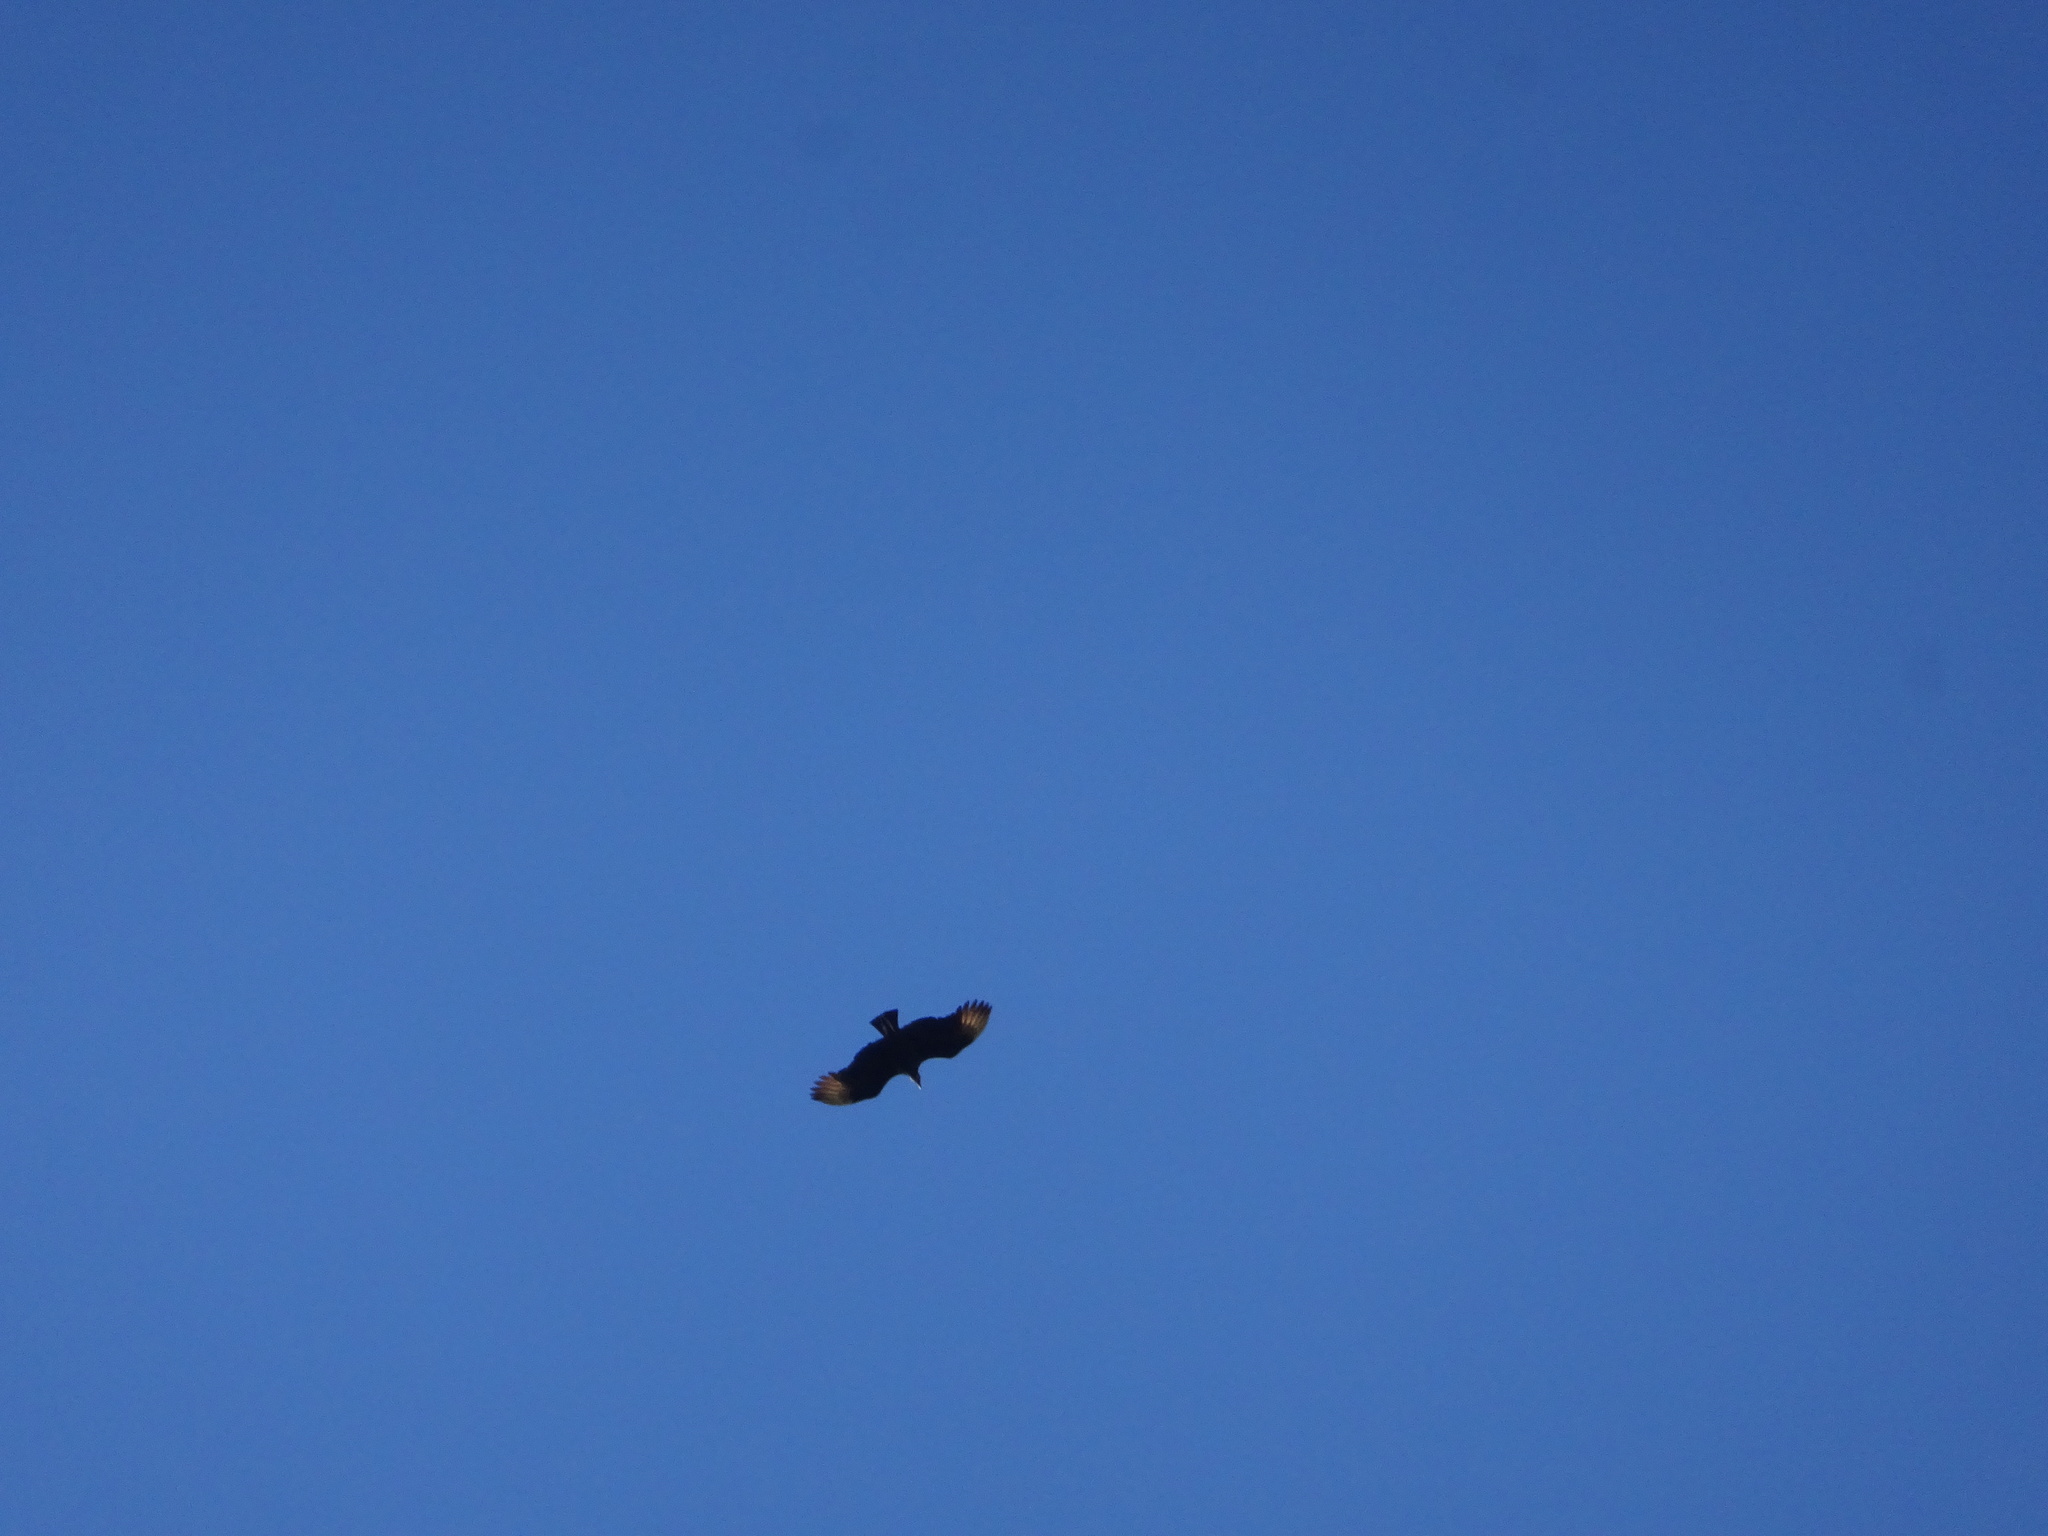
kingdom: Animalia
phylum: Chordata
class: Aves
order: Accipitriformes
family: Cathartidae
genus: Coragyps
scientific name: Coragyps atratus
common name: Black vulture
